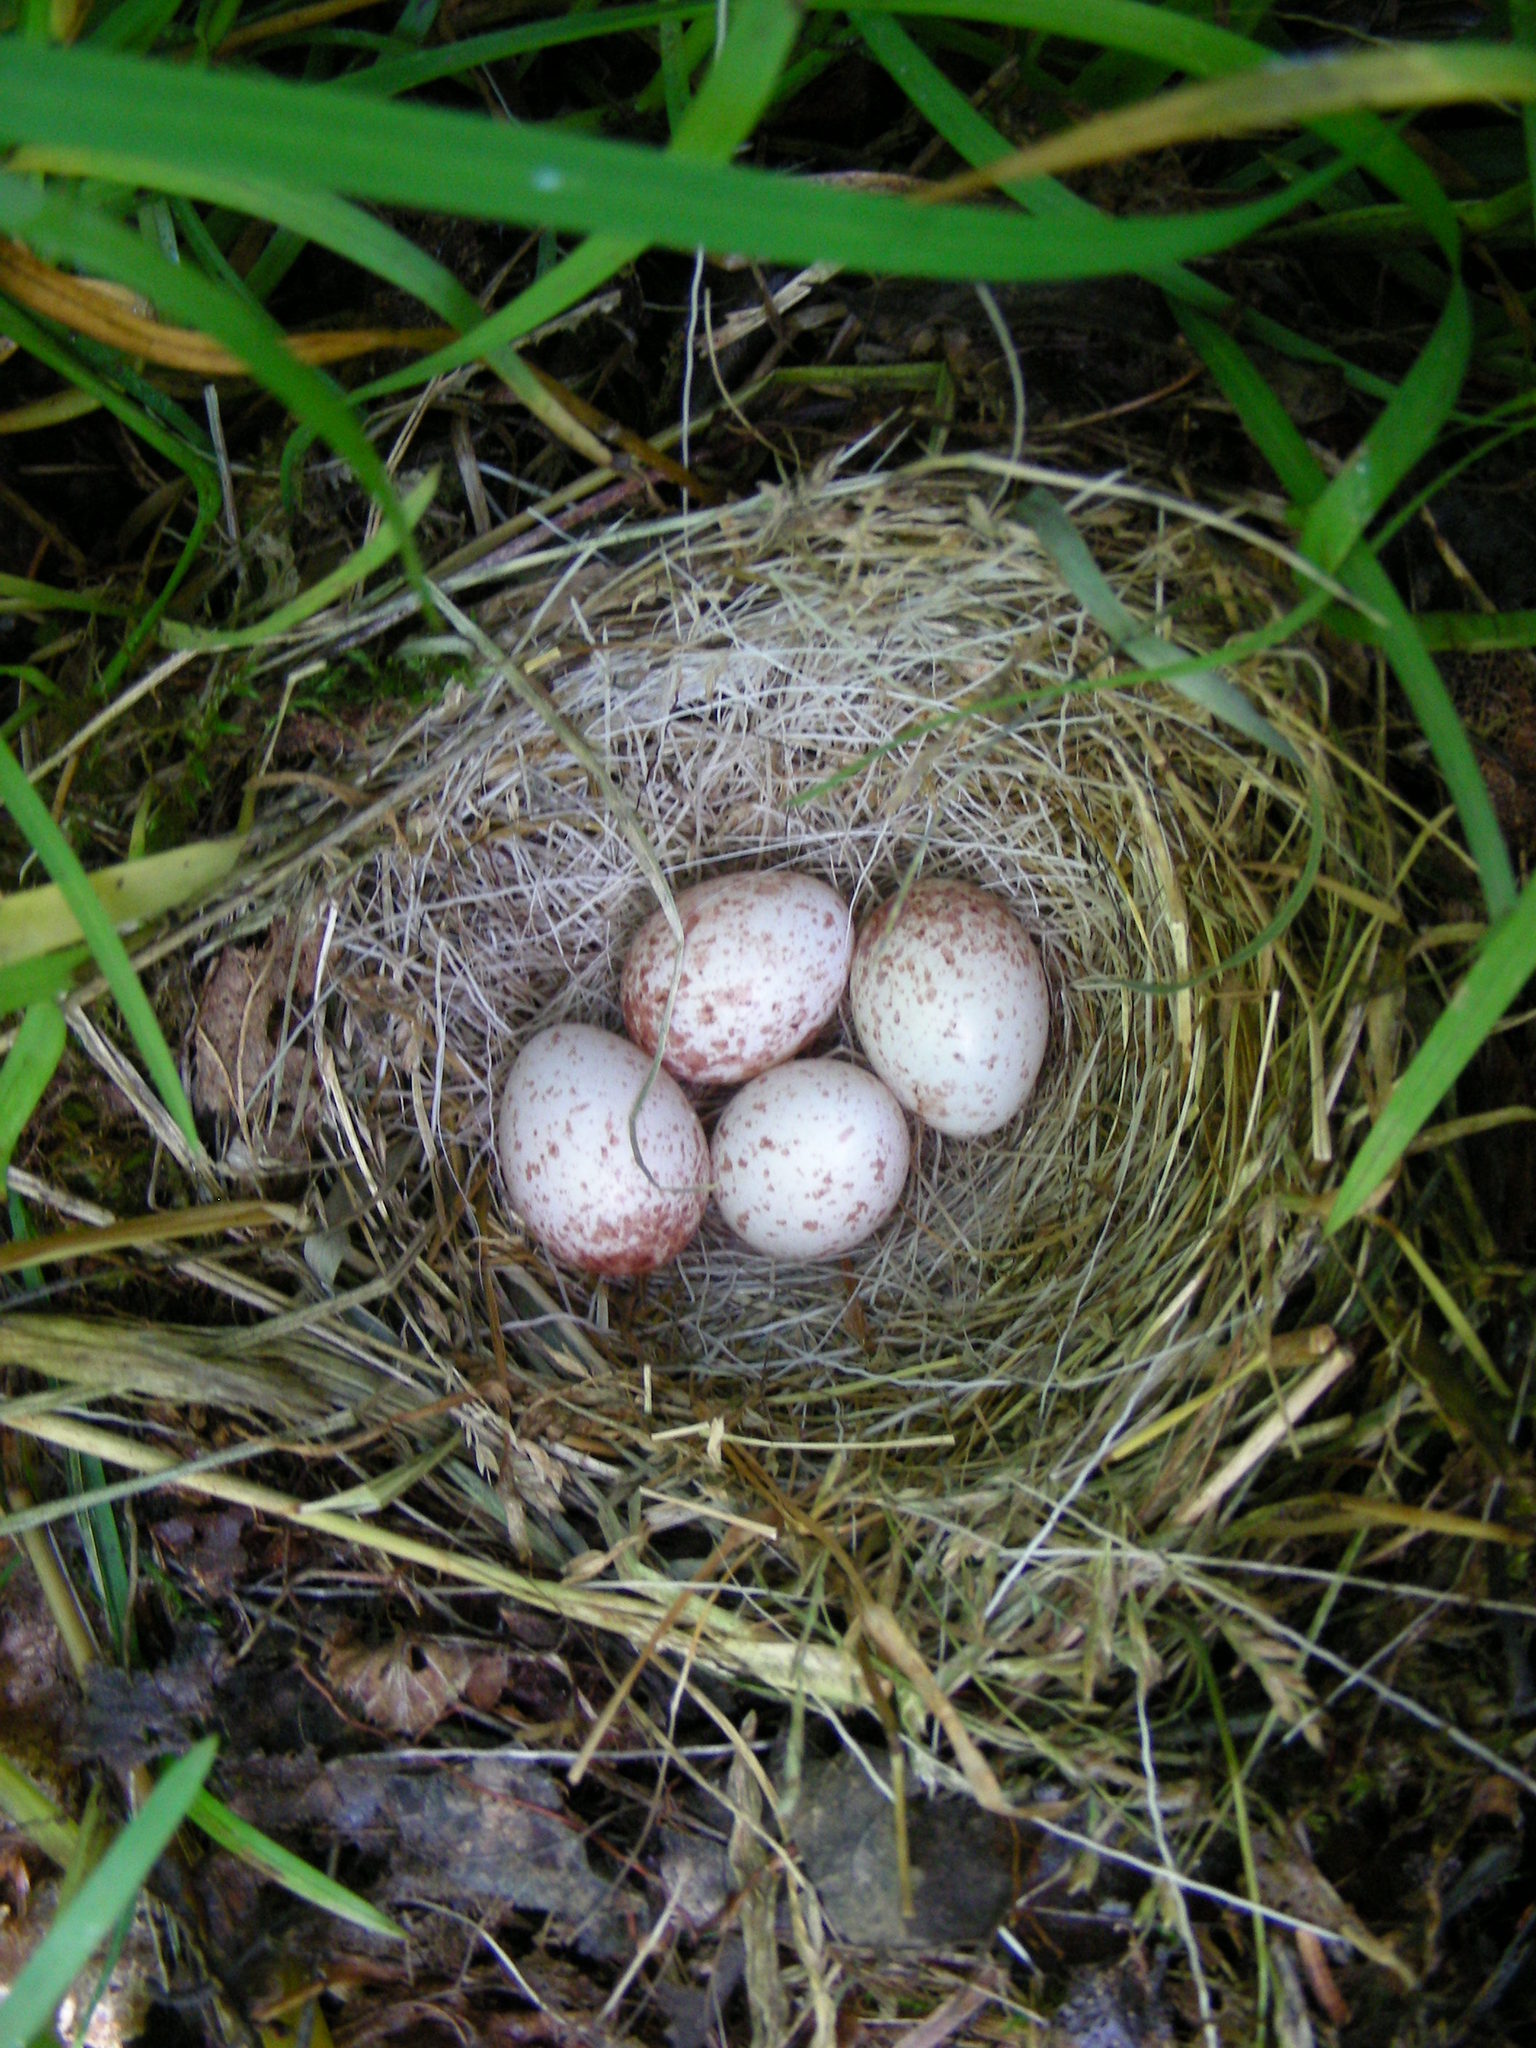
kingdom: Animalia
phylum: Chordata
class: Aves
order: Passeriformes
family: Passerellidae
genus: Junco
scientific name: Junco hyemalis
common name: Dark-eyed junco
